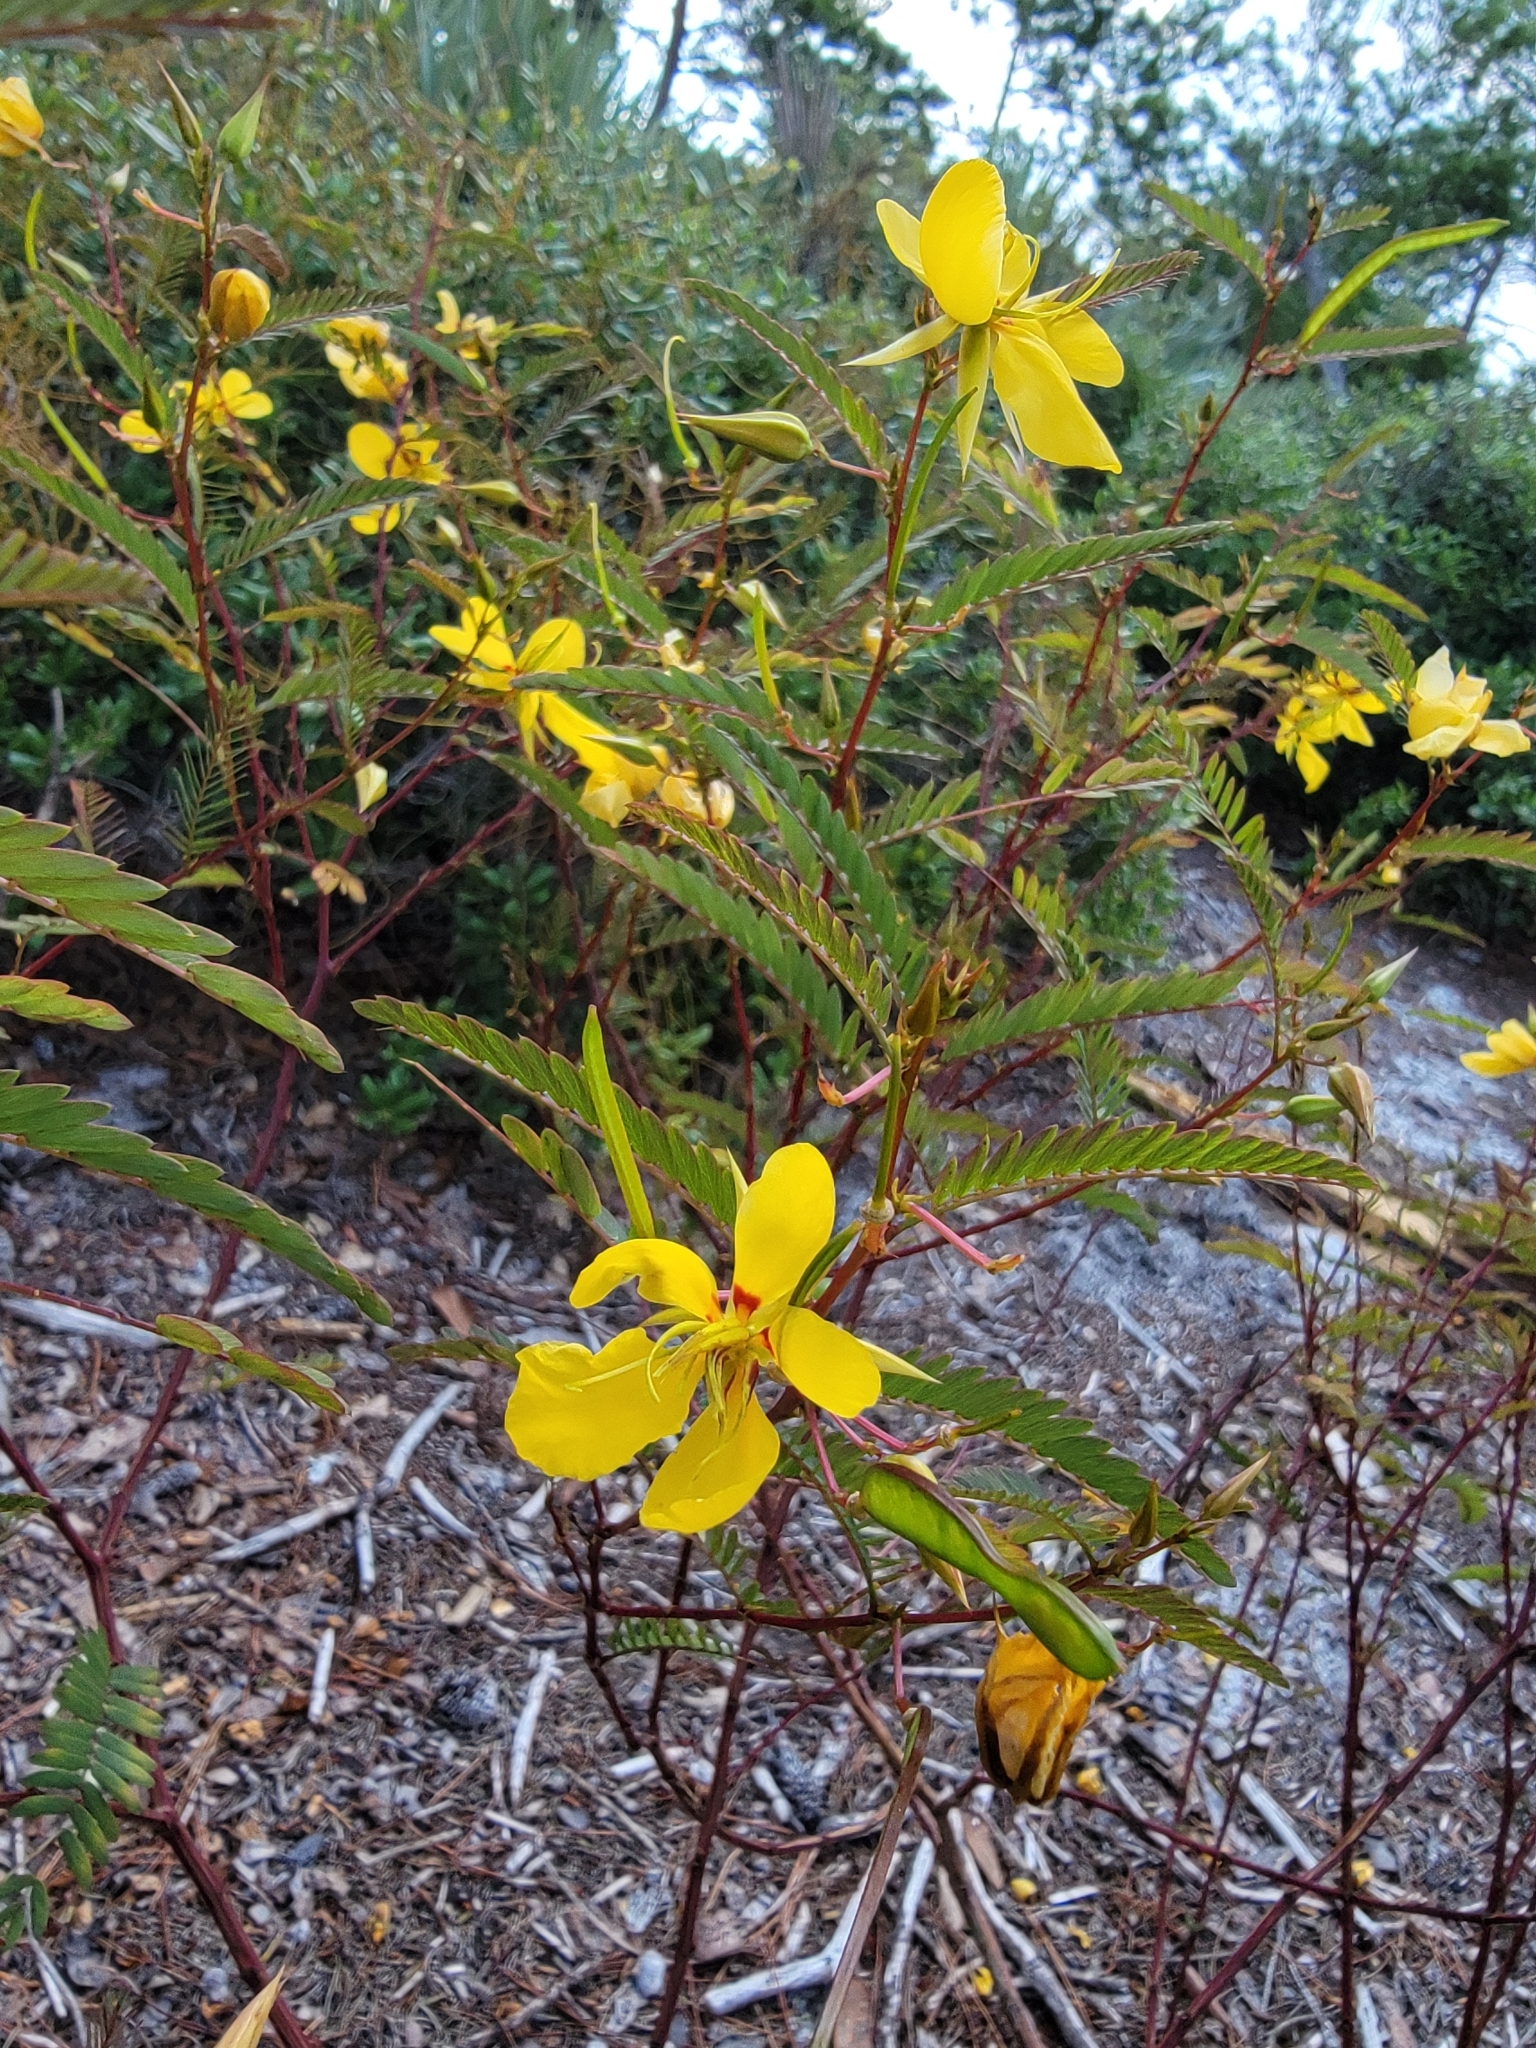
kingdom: Plantae
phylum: Tracheophyta
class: Magnoliopsida
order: Fabales
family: Fabaceae
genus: Chamaecrista
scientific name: Chamaecrista fasciculata
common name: Golden cassia
